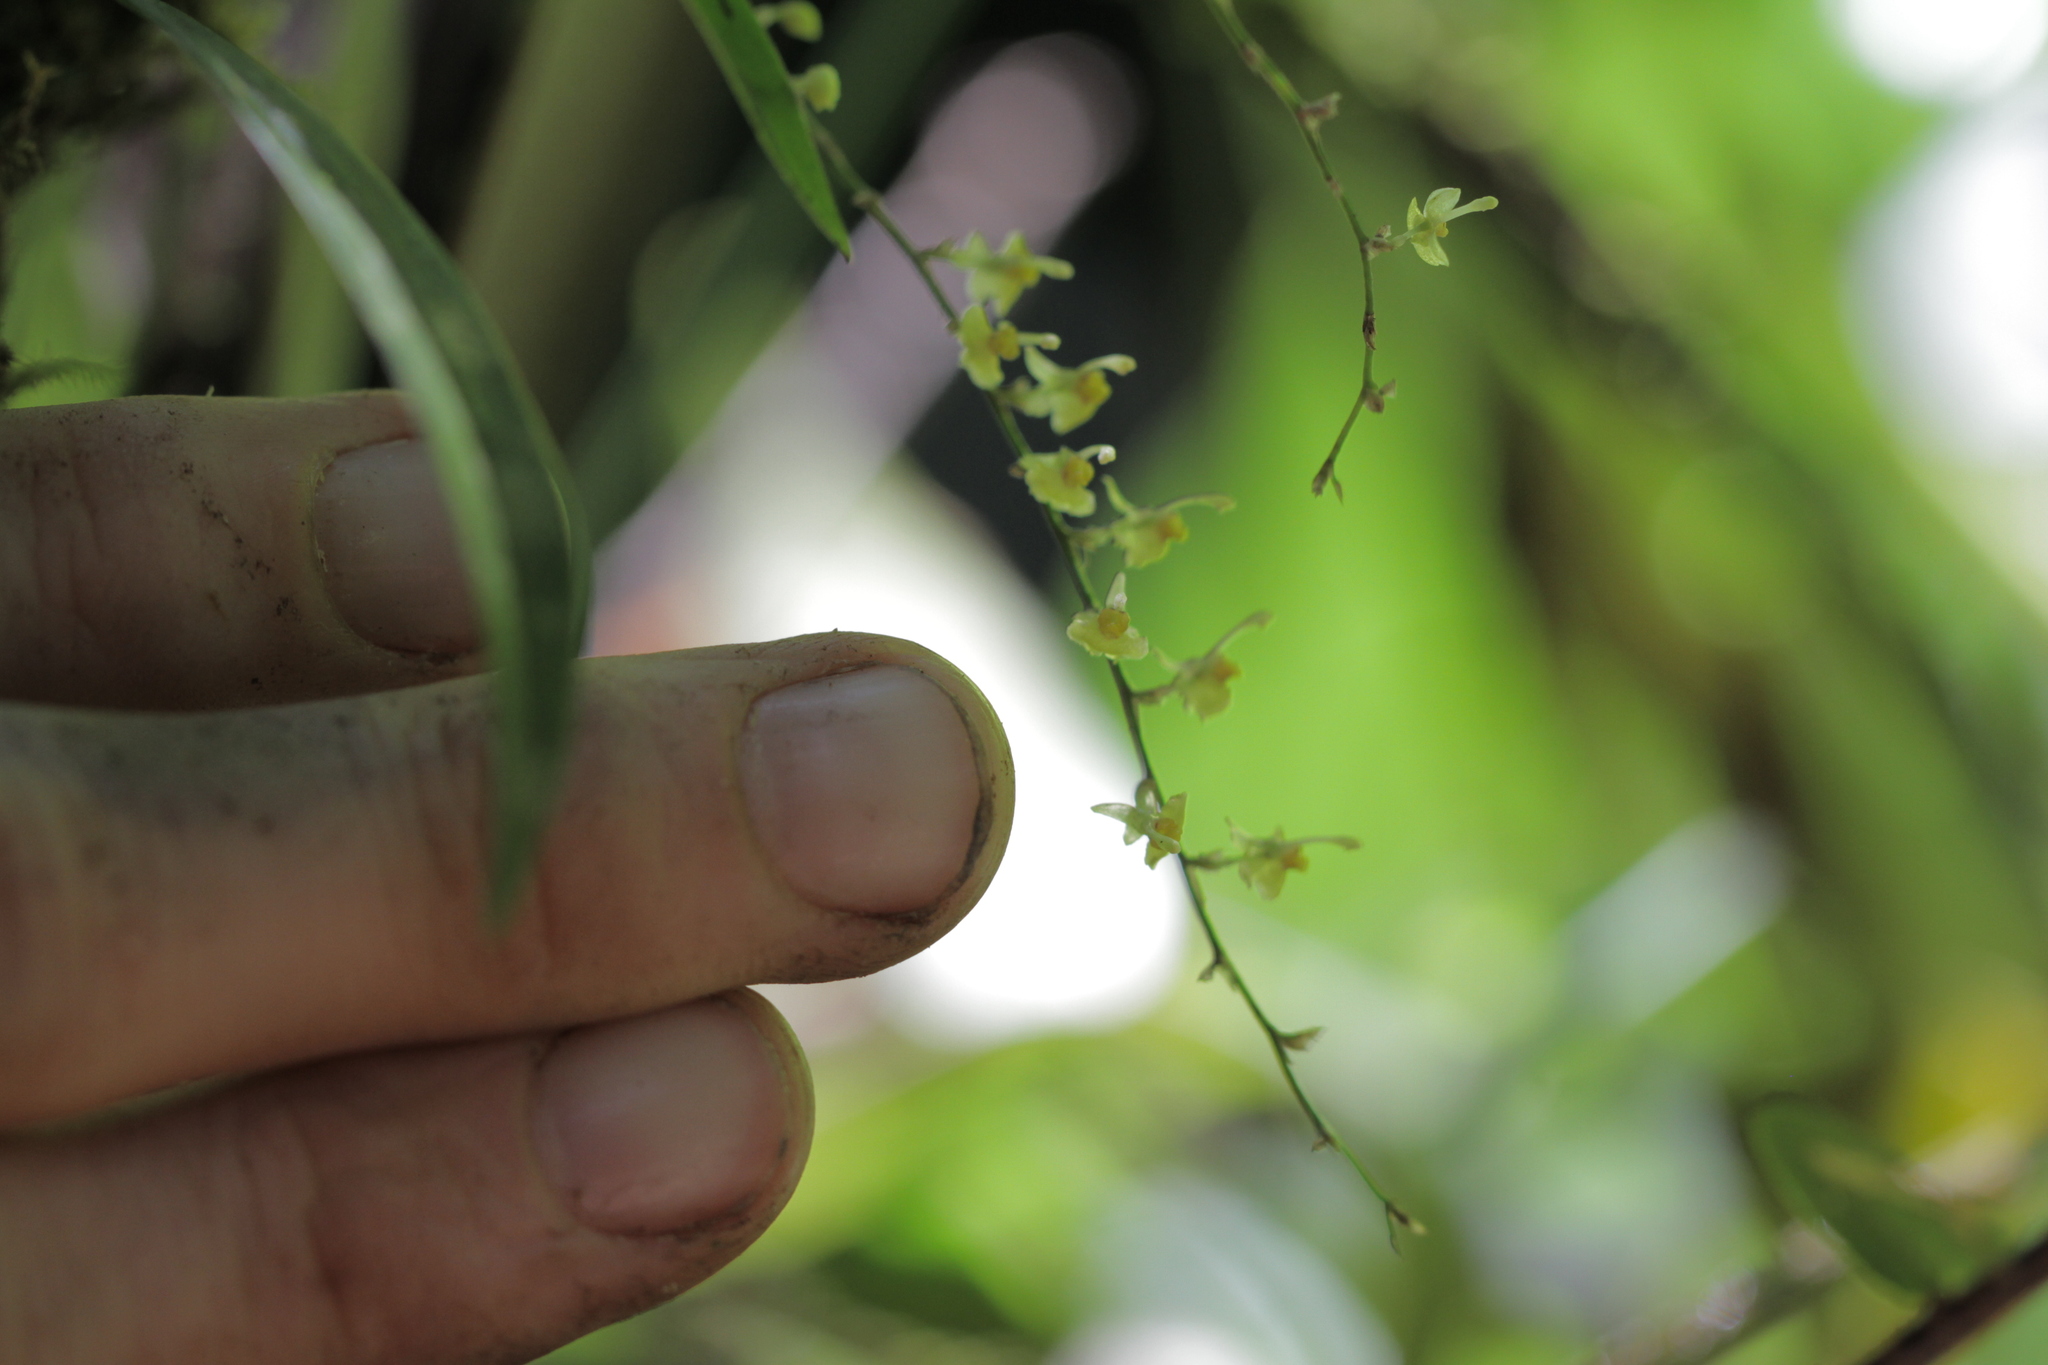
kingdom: Plantae
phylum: Tracheophyta
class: Liliopsida
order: Asparagales
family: Orchidaceae
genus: Oncidium
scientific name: Oncidium macrobulbon
